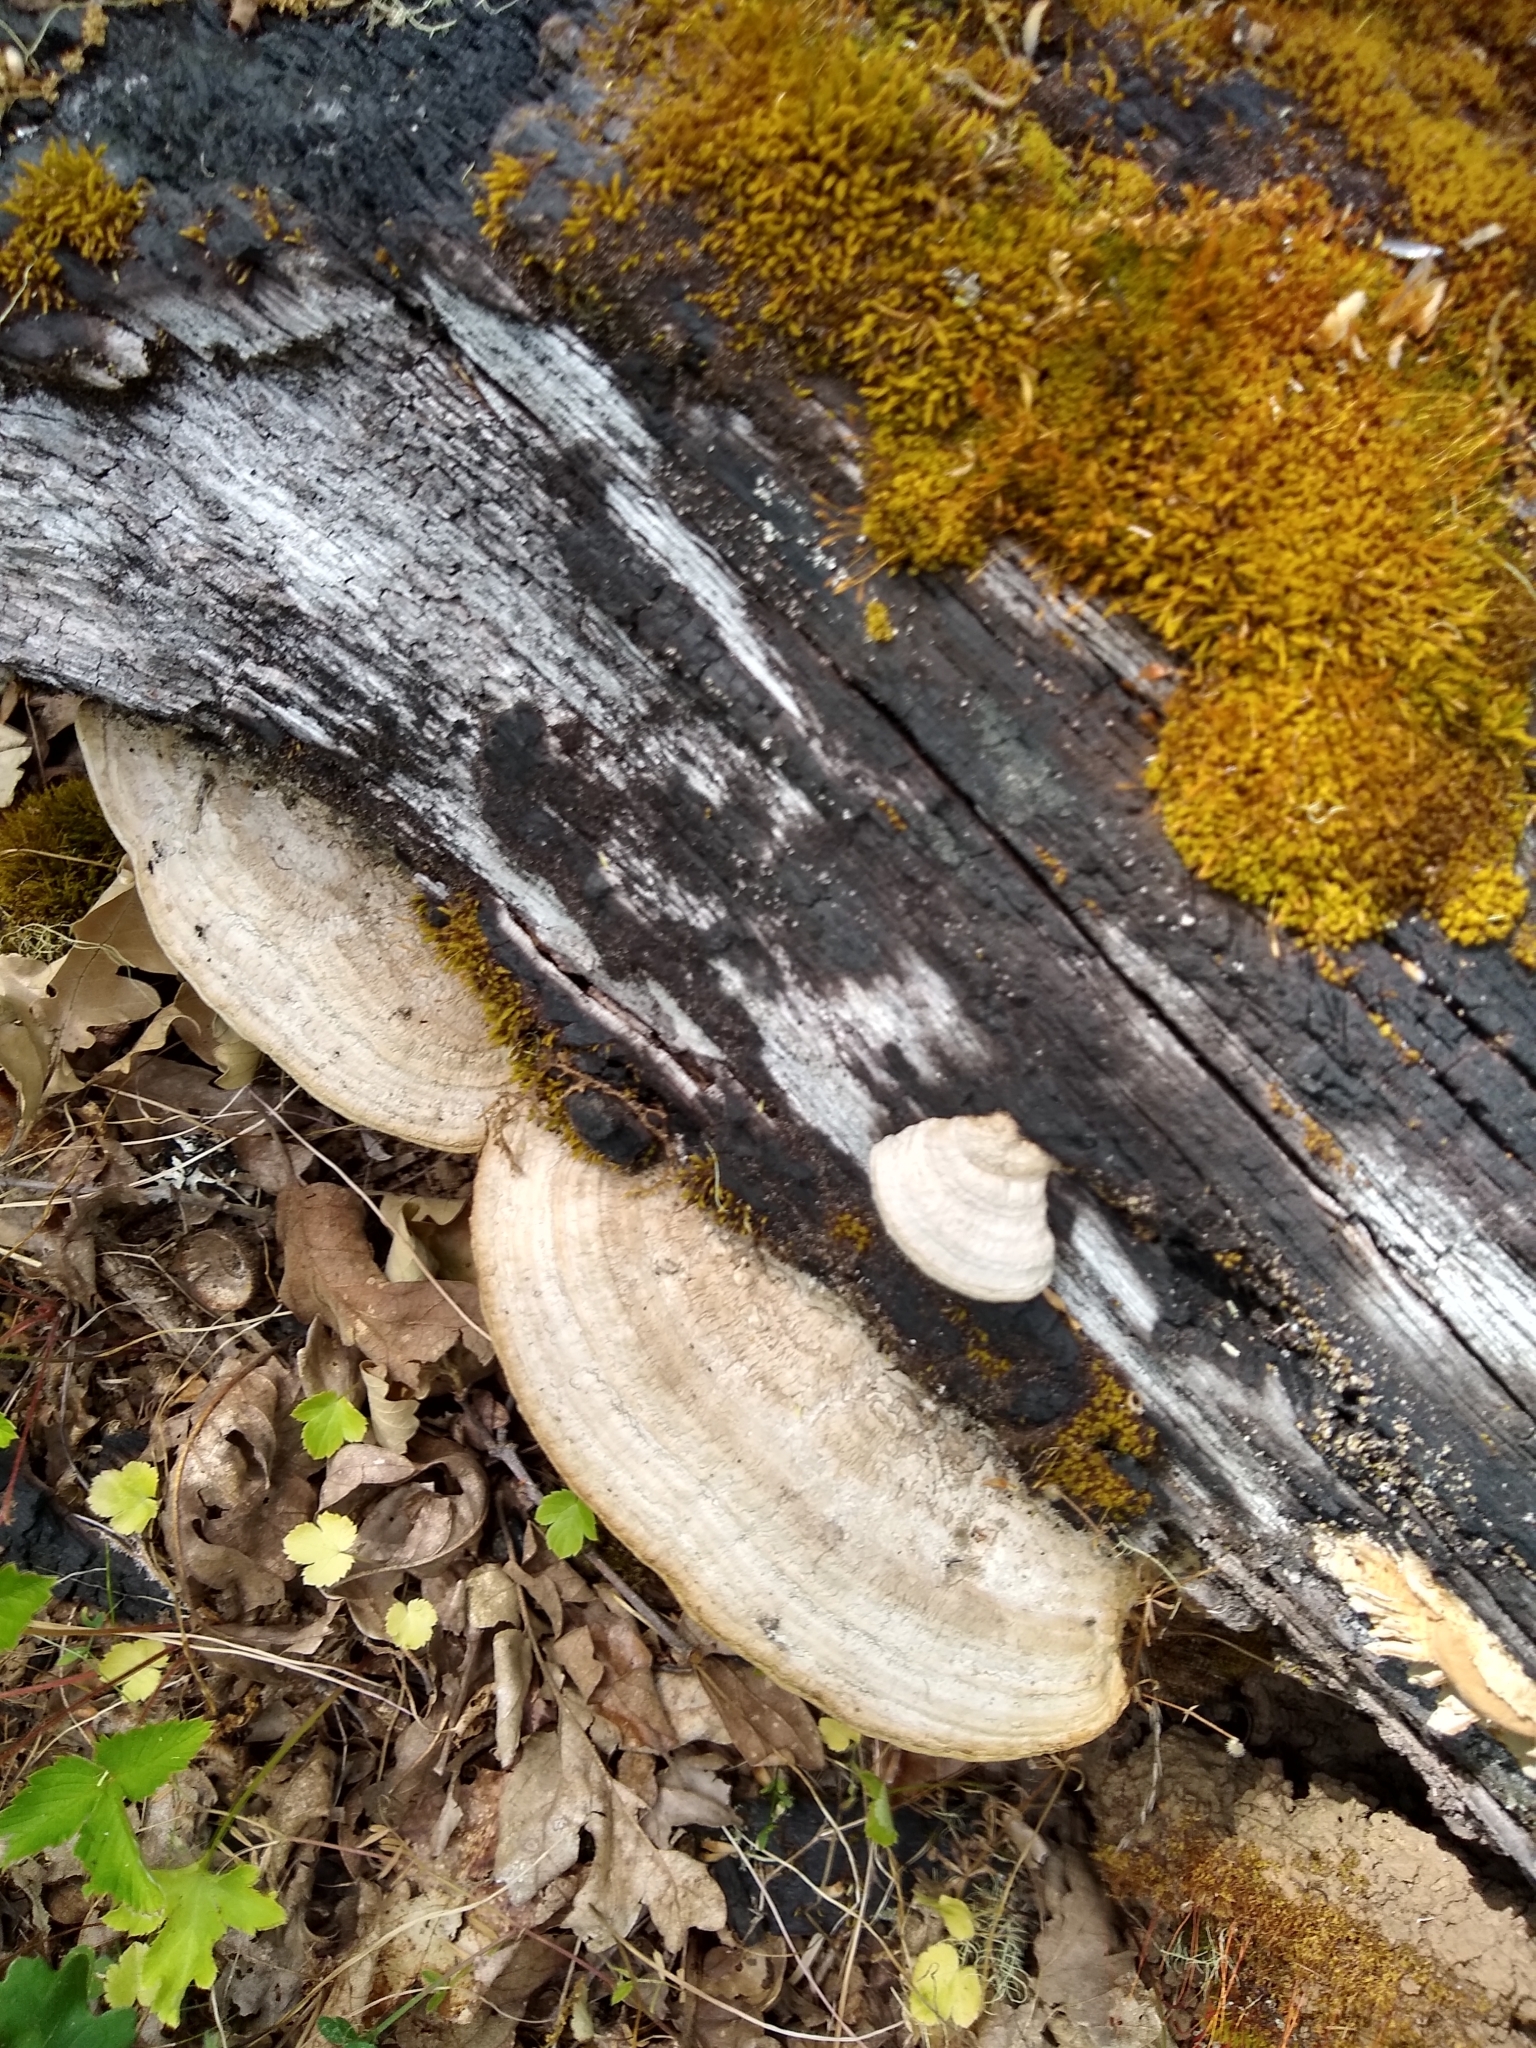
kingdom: Fungi
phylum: Basidiomycota
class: Agaricomycetes
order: Polyporales
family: Fomitopsidaceae
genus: Fomitopsis
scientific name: Fomitopsis
